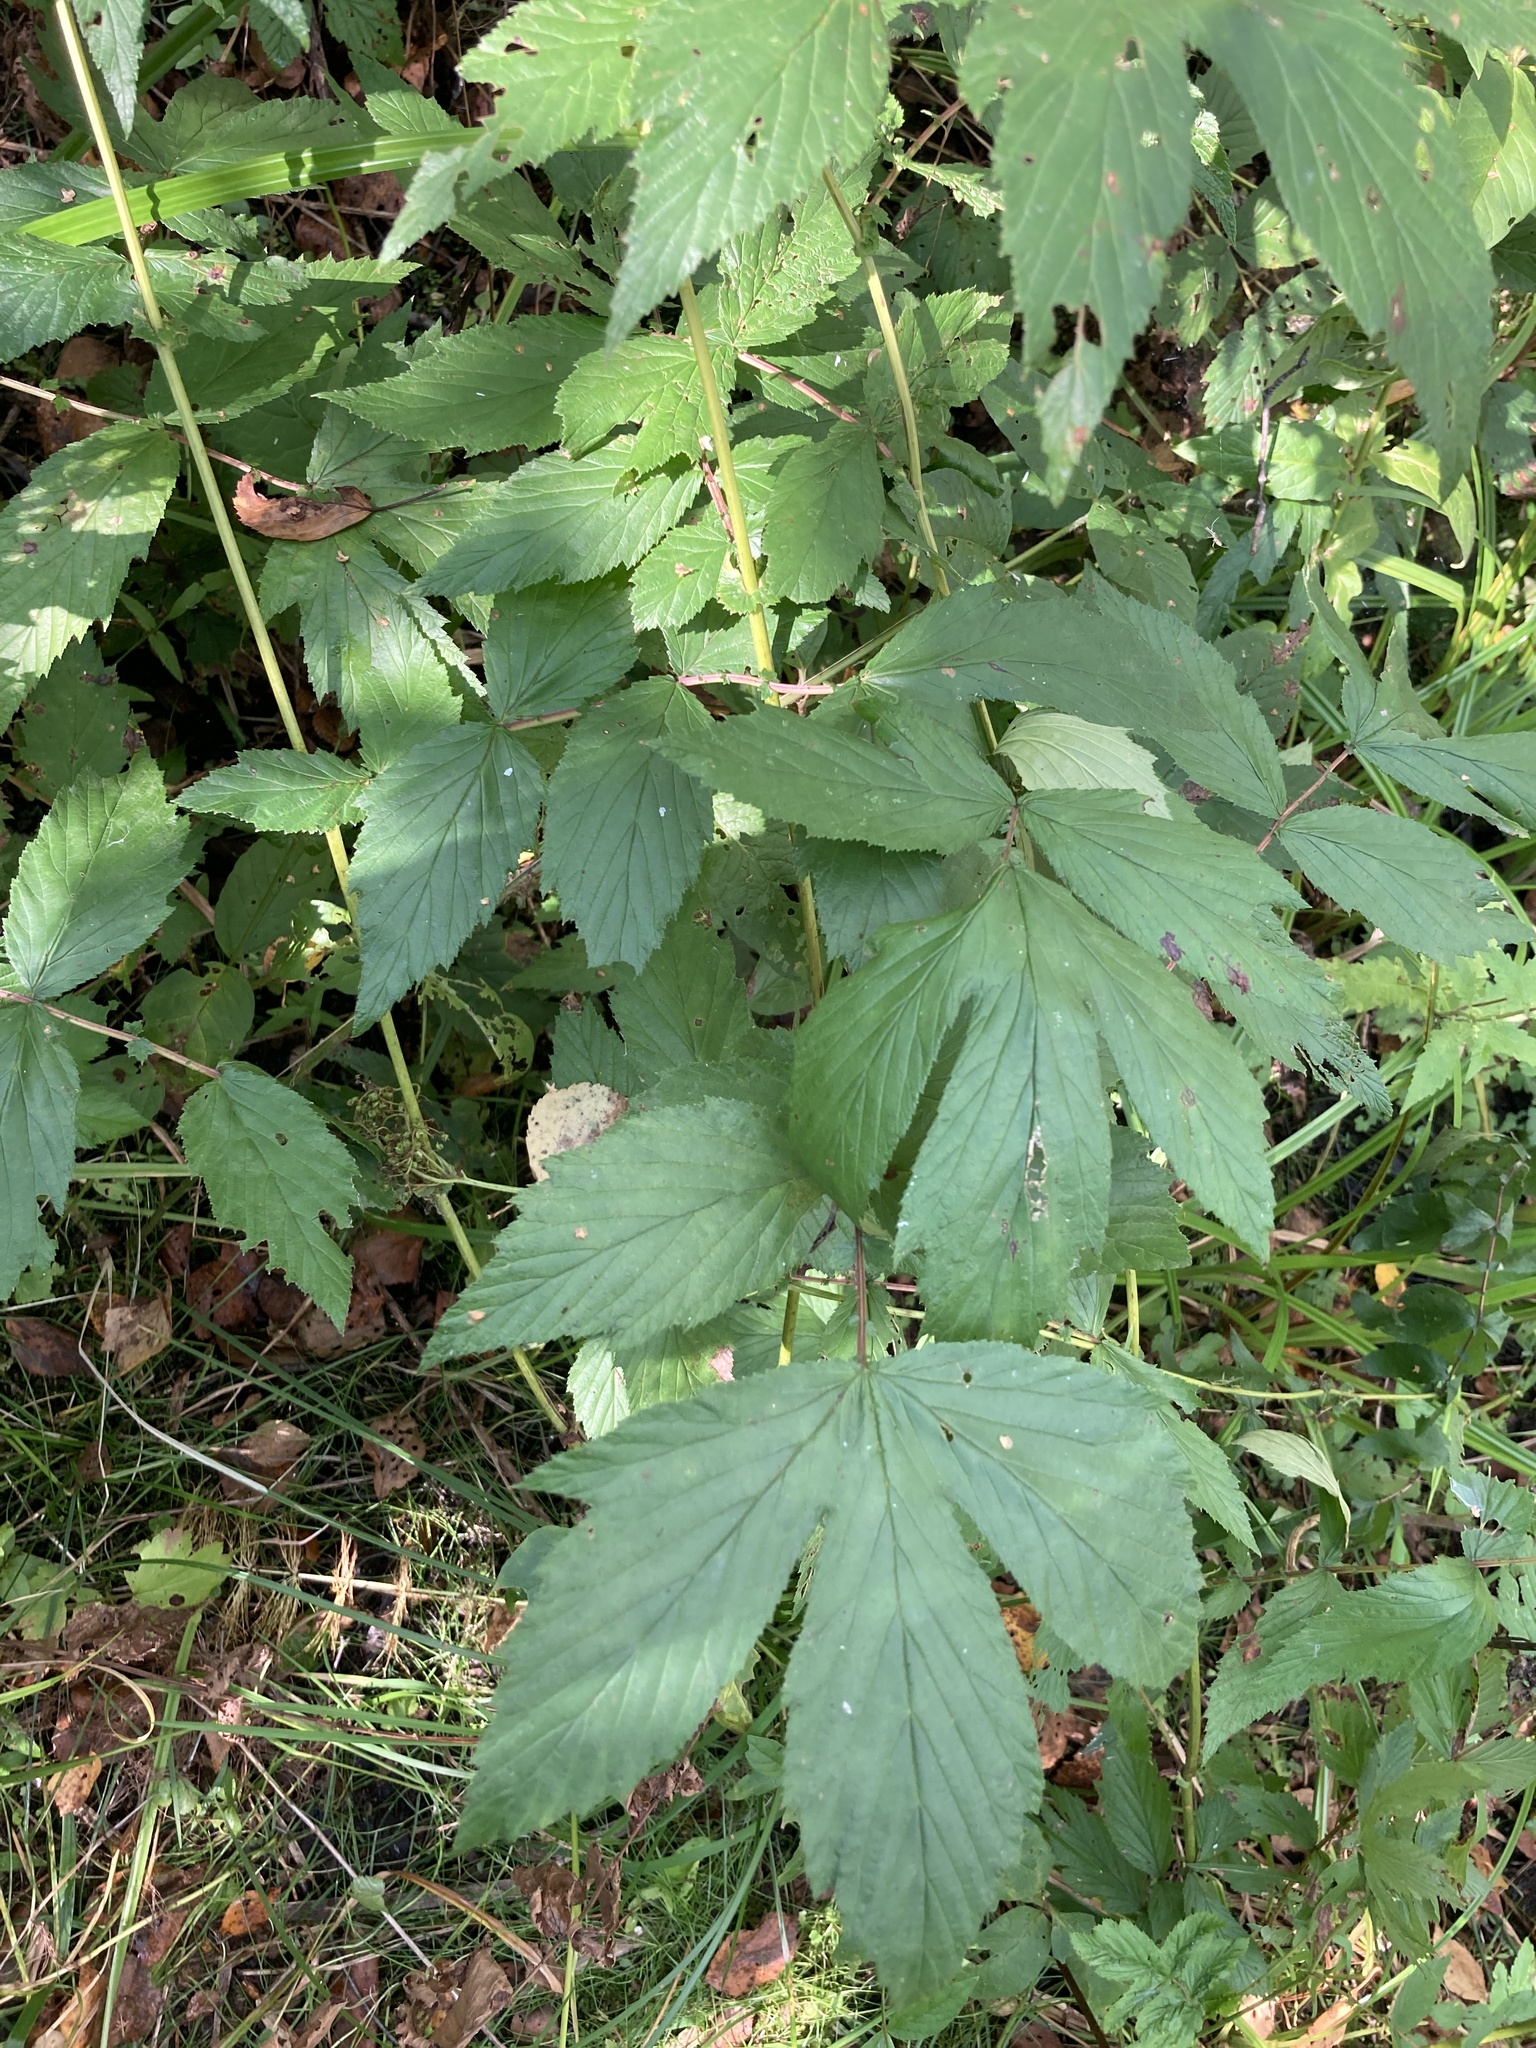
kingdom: Plantae
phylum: Tracheophyta
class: Magnoliopsida
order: Rosales
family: Rosaceae
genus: Filipendula
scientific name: Filipendula ulmaria
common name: Meadowsweet
